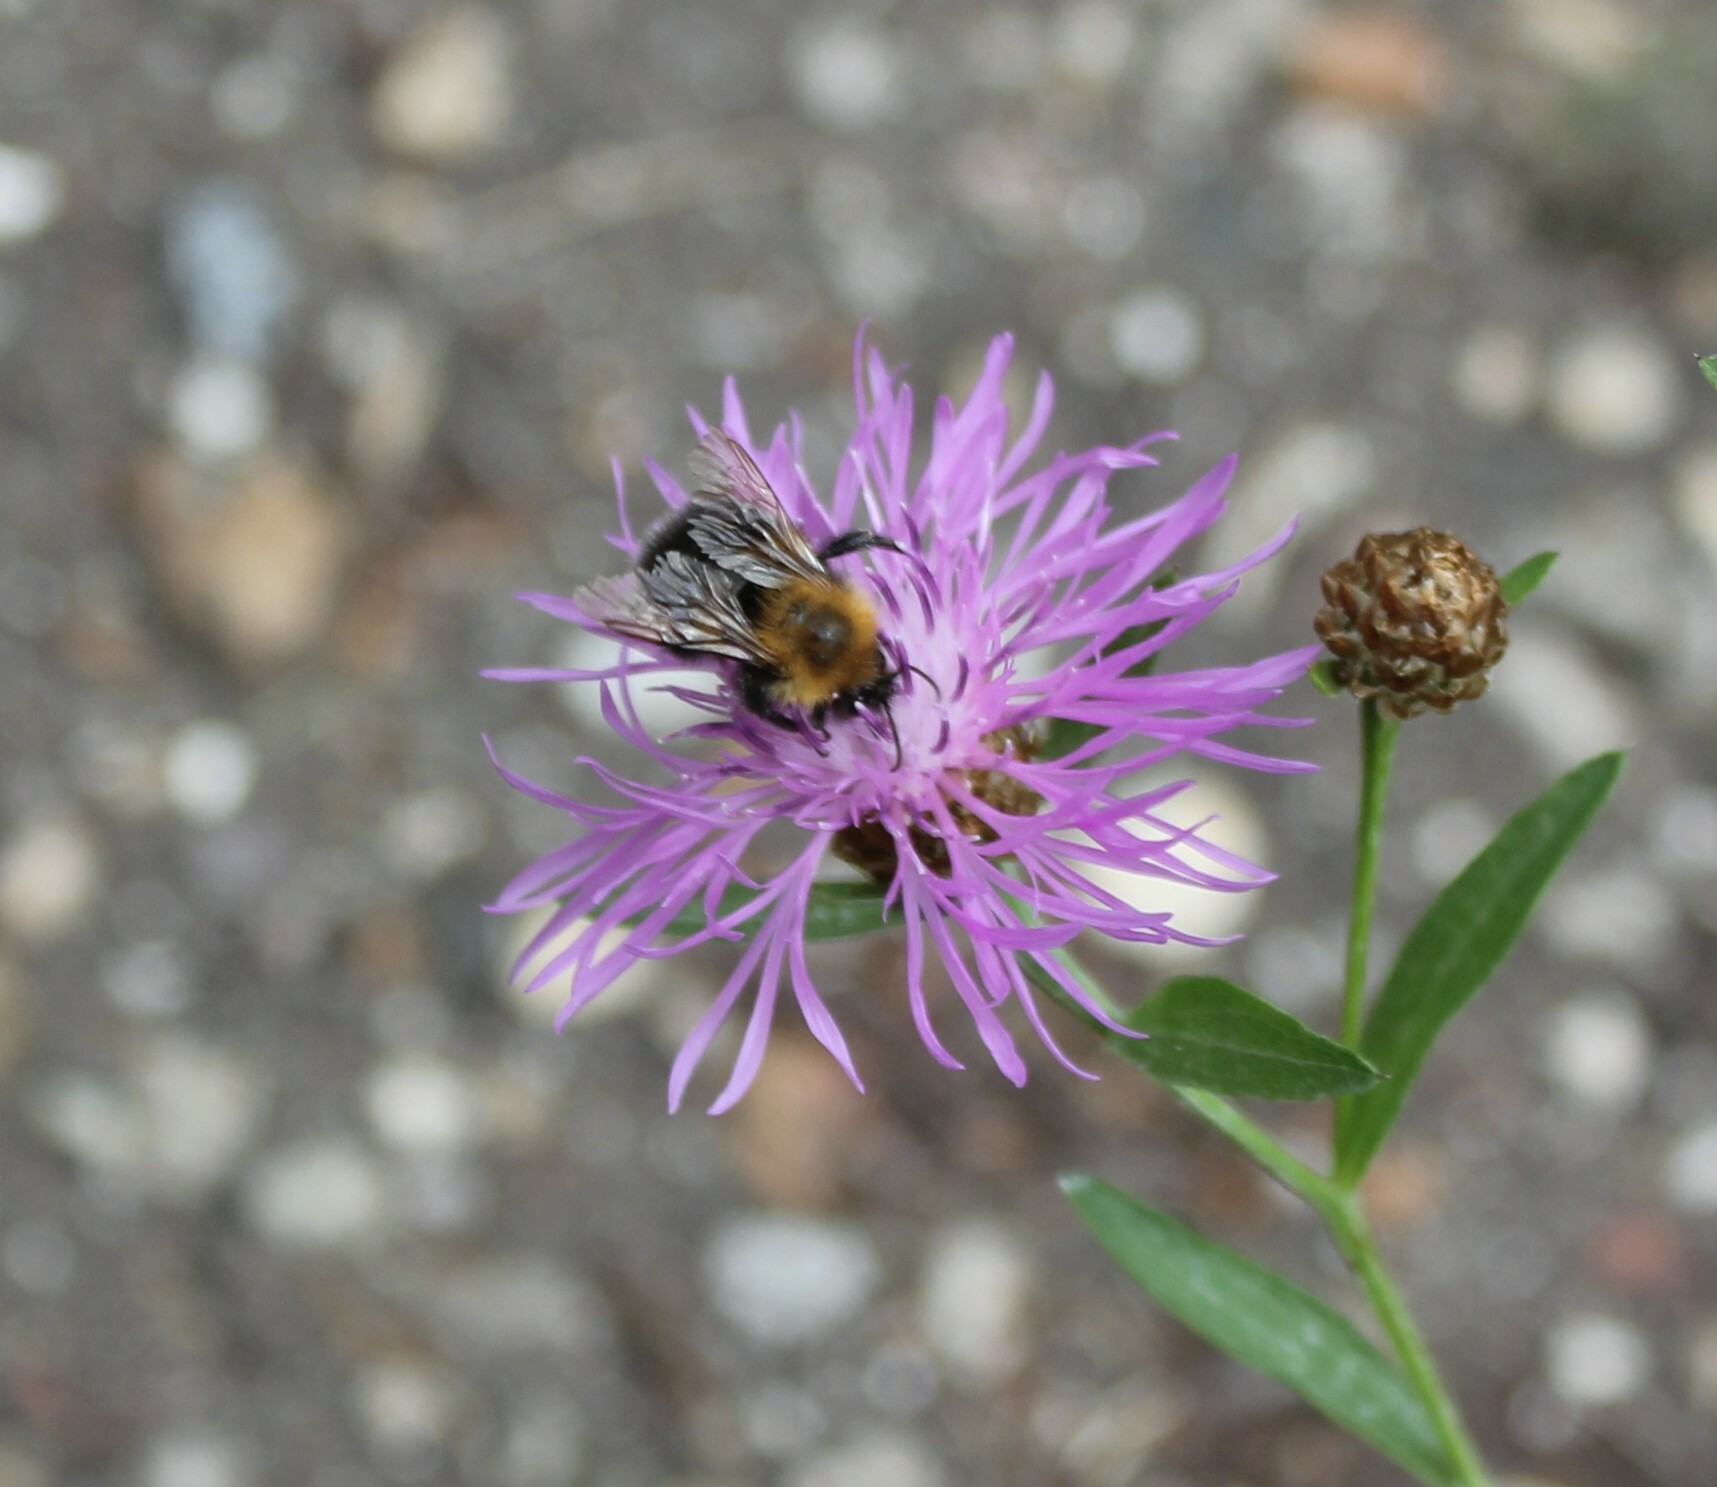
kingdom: Animalia
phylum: Arthropoda
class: Insecta
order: Hymenoptera
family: Apidae
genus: Bombus
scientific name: Bombus hypnorum
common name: New garden bumblebee
